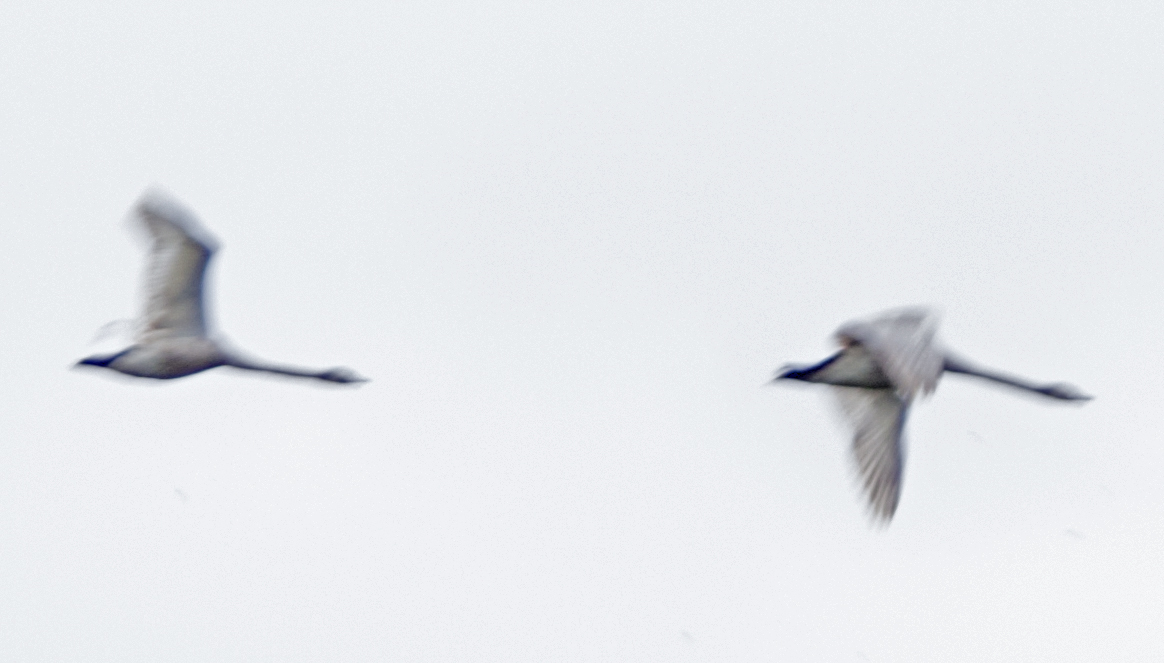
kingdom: Animalia
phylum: Chordata
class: Aves
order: Anseriformes
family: Anatidae
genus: Cygnus
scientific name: Cygnus olor
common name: Mute swan
